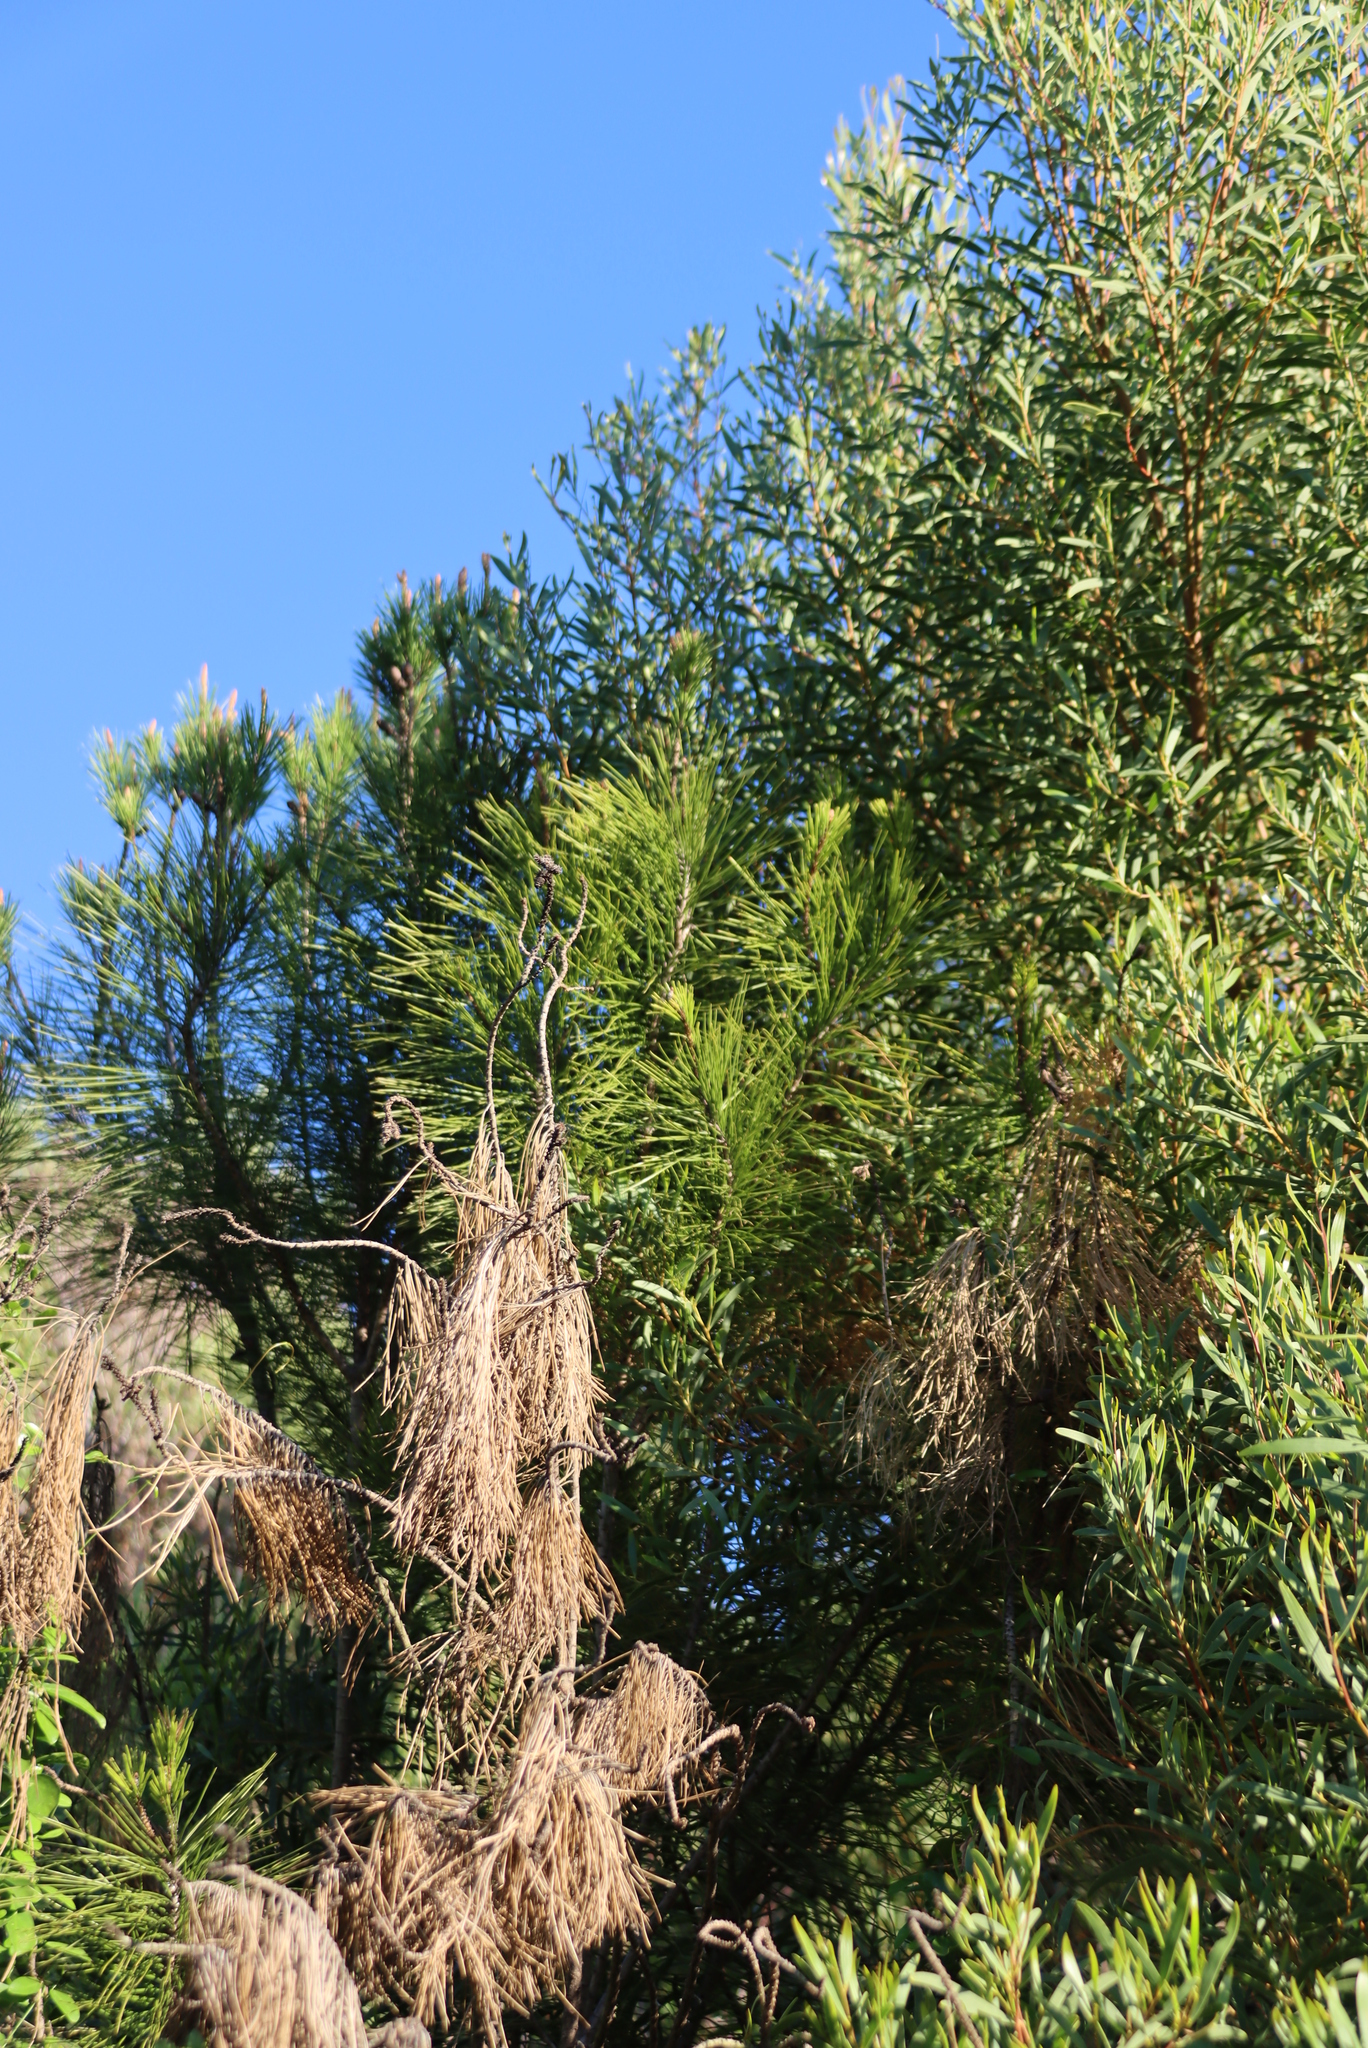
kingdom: Plantae
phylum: Tracheophyta
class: Pinopsida
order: Pinales
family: Pinaceae
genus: Pinus
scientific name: Pinus pinaster
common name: Maritime pine
